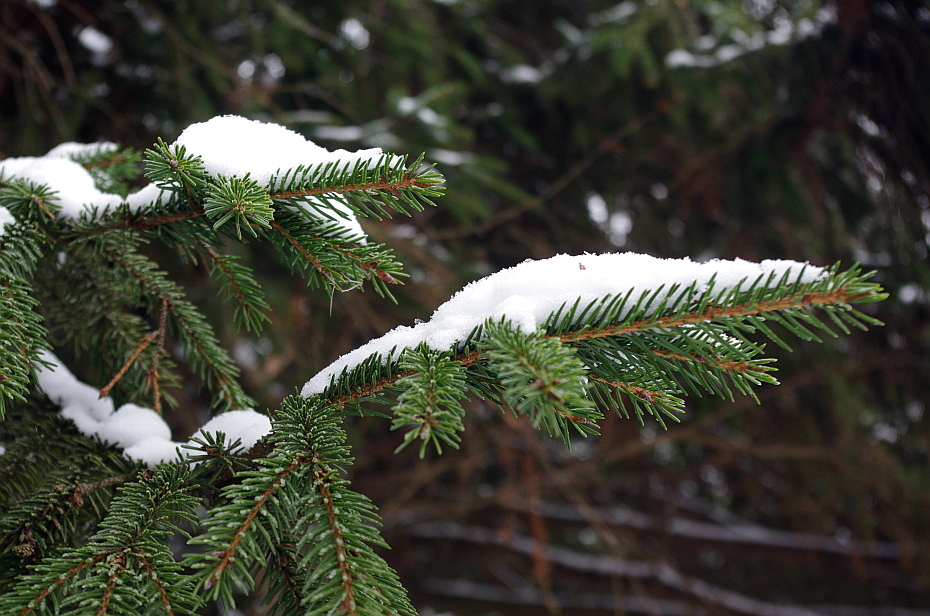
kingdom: Plantae
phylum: Tracheophyta
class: Pinopsida
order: Pinales
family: Pinaceae
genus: Picea
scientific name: Picea abies
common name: Norway spruce
